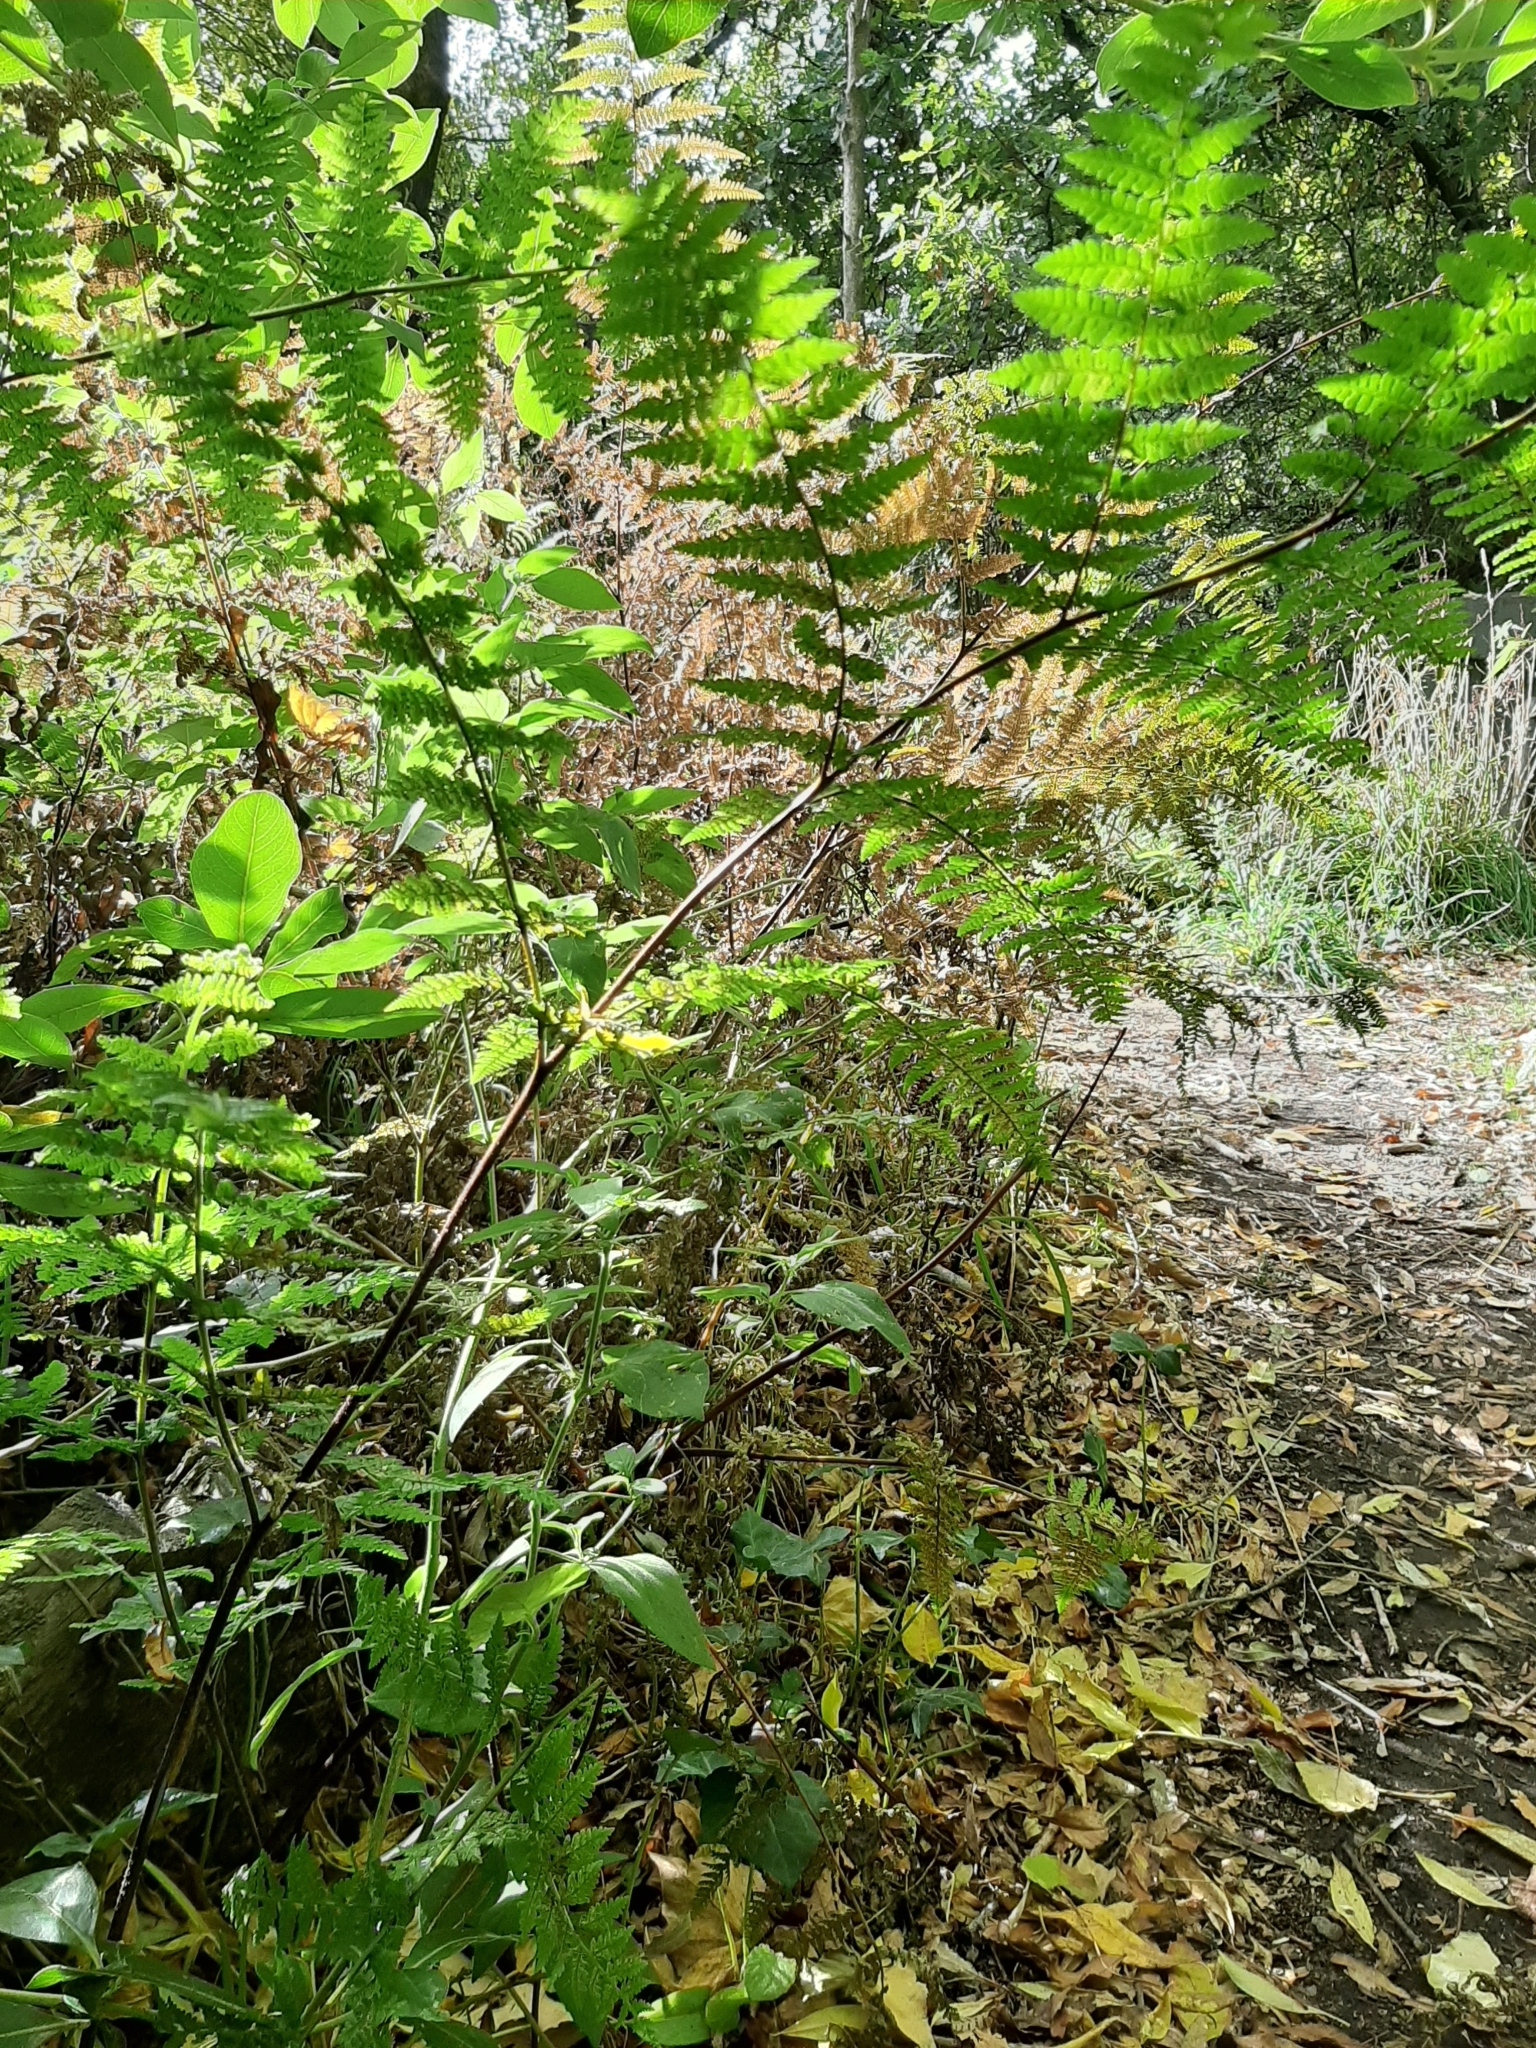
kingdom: Plantae
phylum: Tracheophyta
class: Polypodiopsida
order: Polypodiales
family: Dennstaedtiaceae
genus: Hypolepis
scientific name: Hypolepis ambigua
